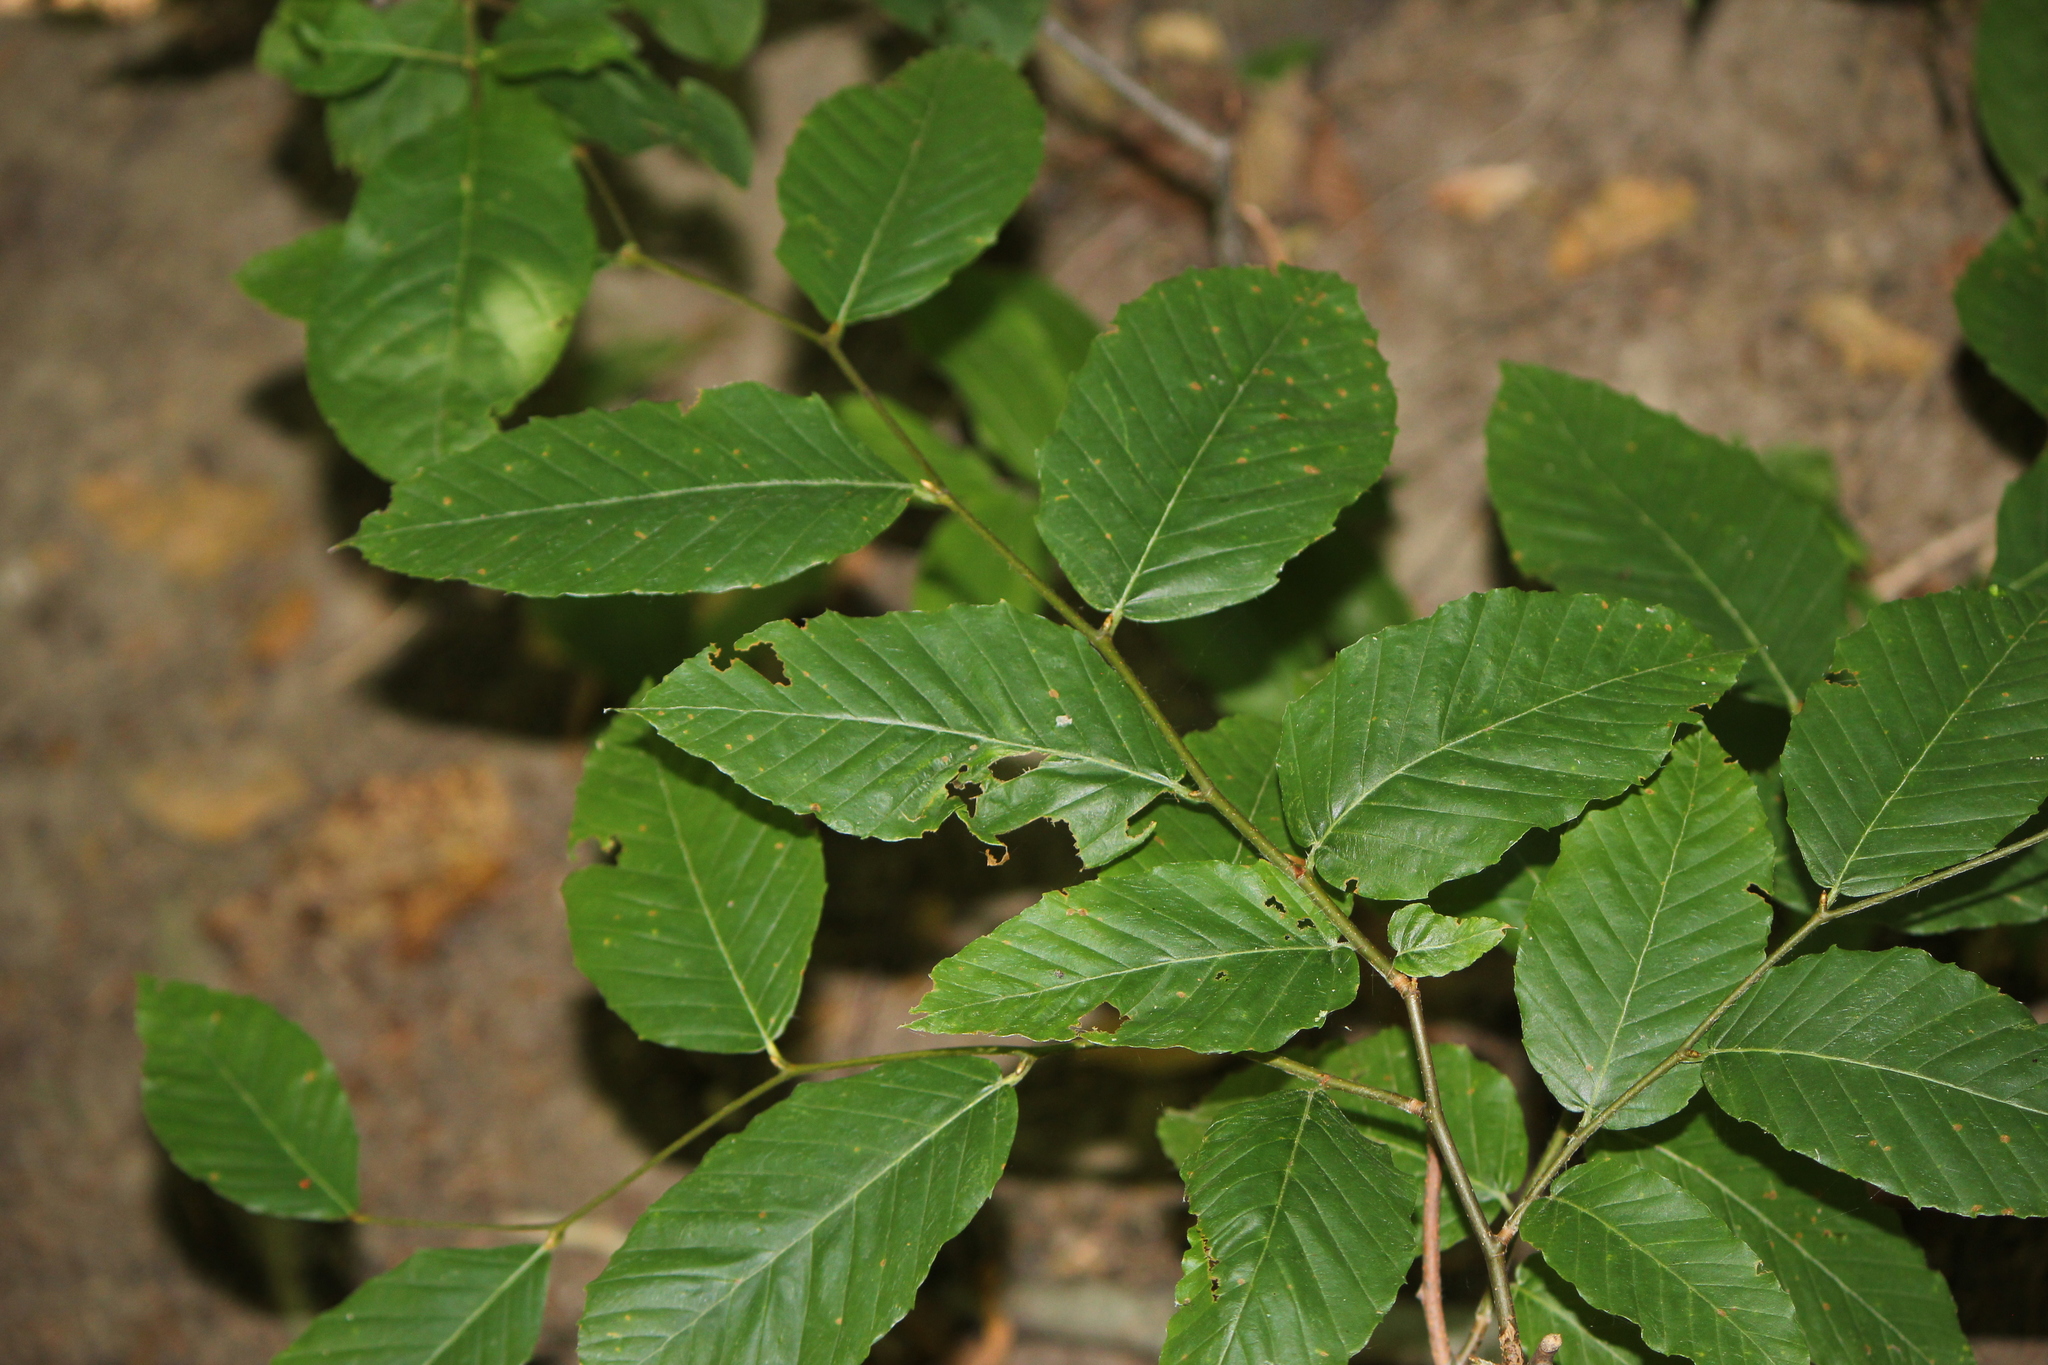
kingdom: Plantae
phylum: Tracheophyta
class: Magnoliopsida
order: Fagales
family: Fagaceae
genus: Fagus
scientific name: Fagus grandifolia
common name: American beech
